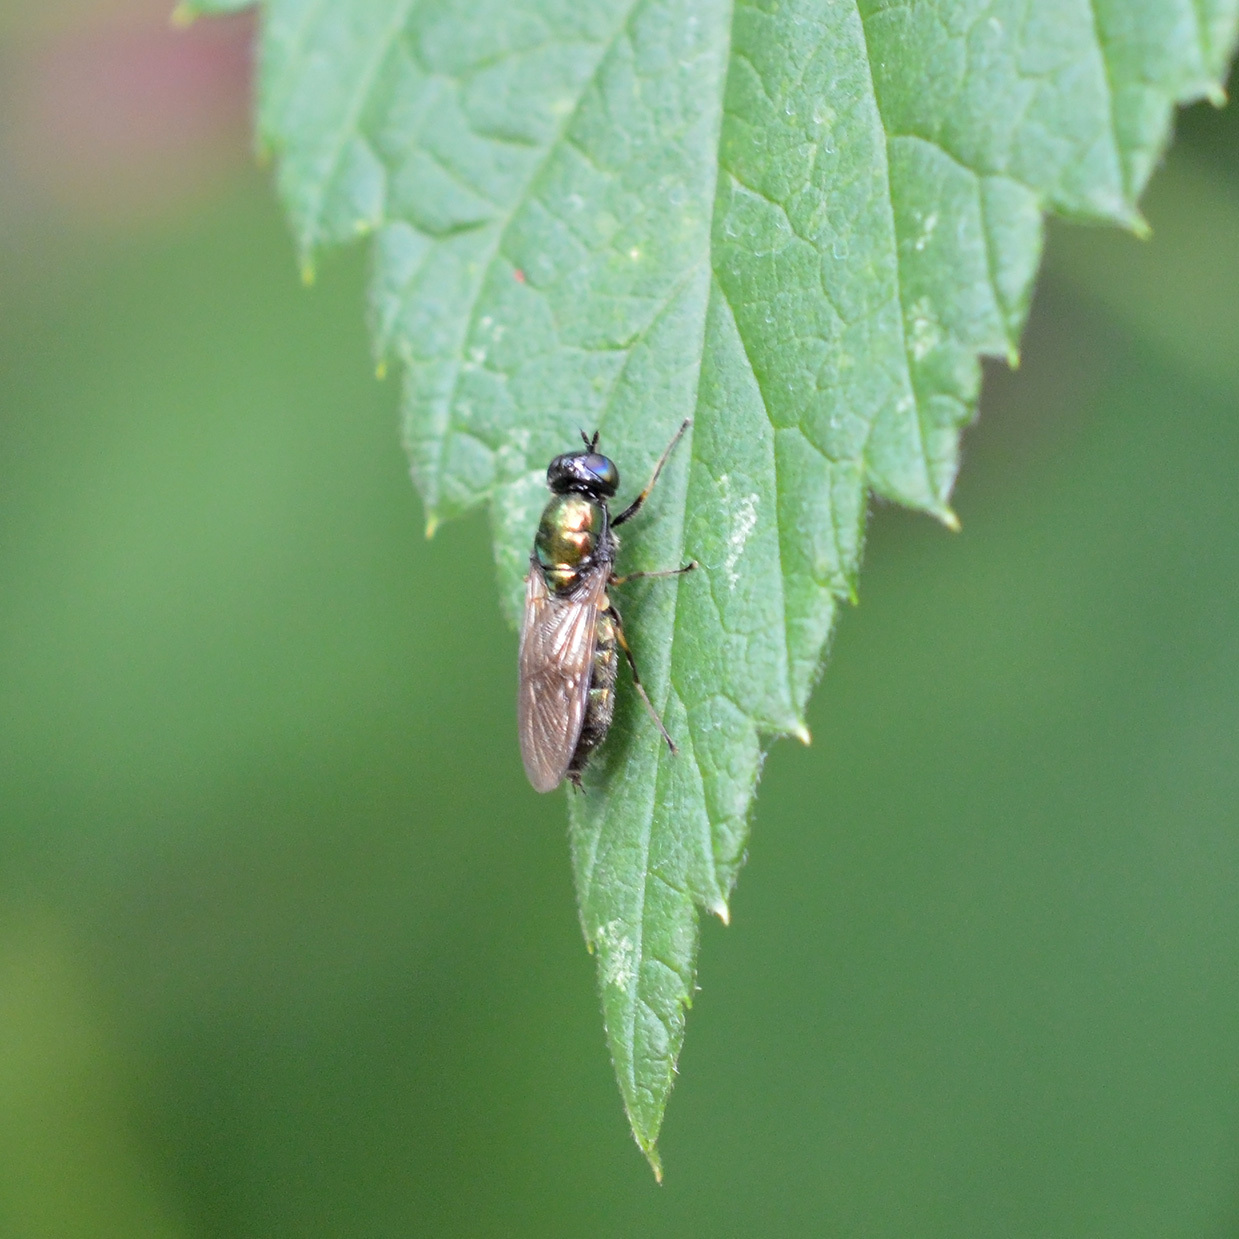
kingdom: Animalia
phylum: Arthropoda
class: Insecta
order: Diptera
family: Stratiomyidae
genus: Chloromyia
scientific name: Chloromyia formosa
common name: Soldier fly
